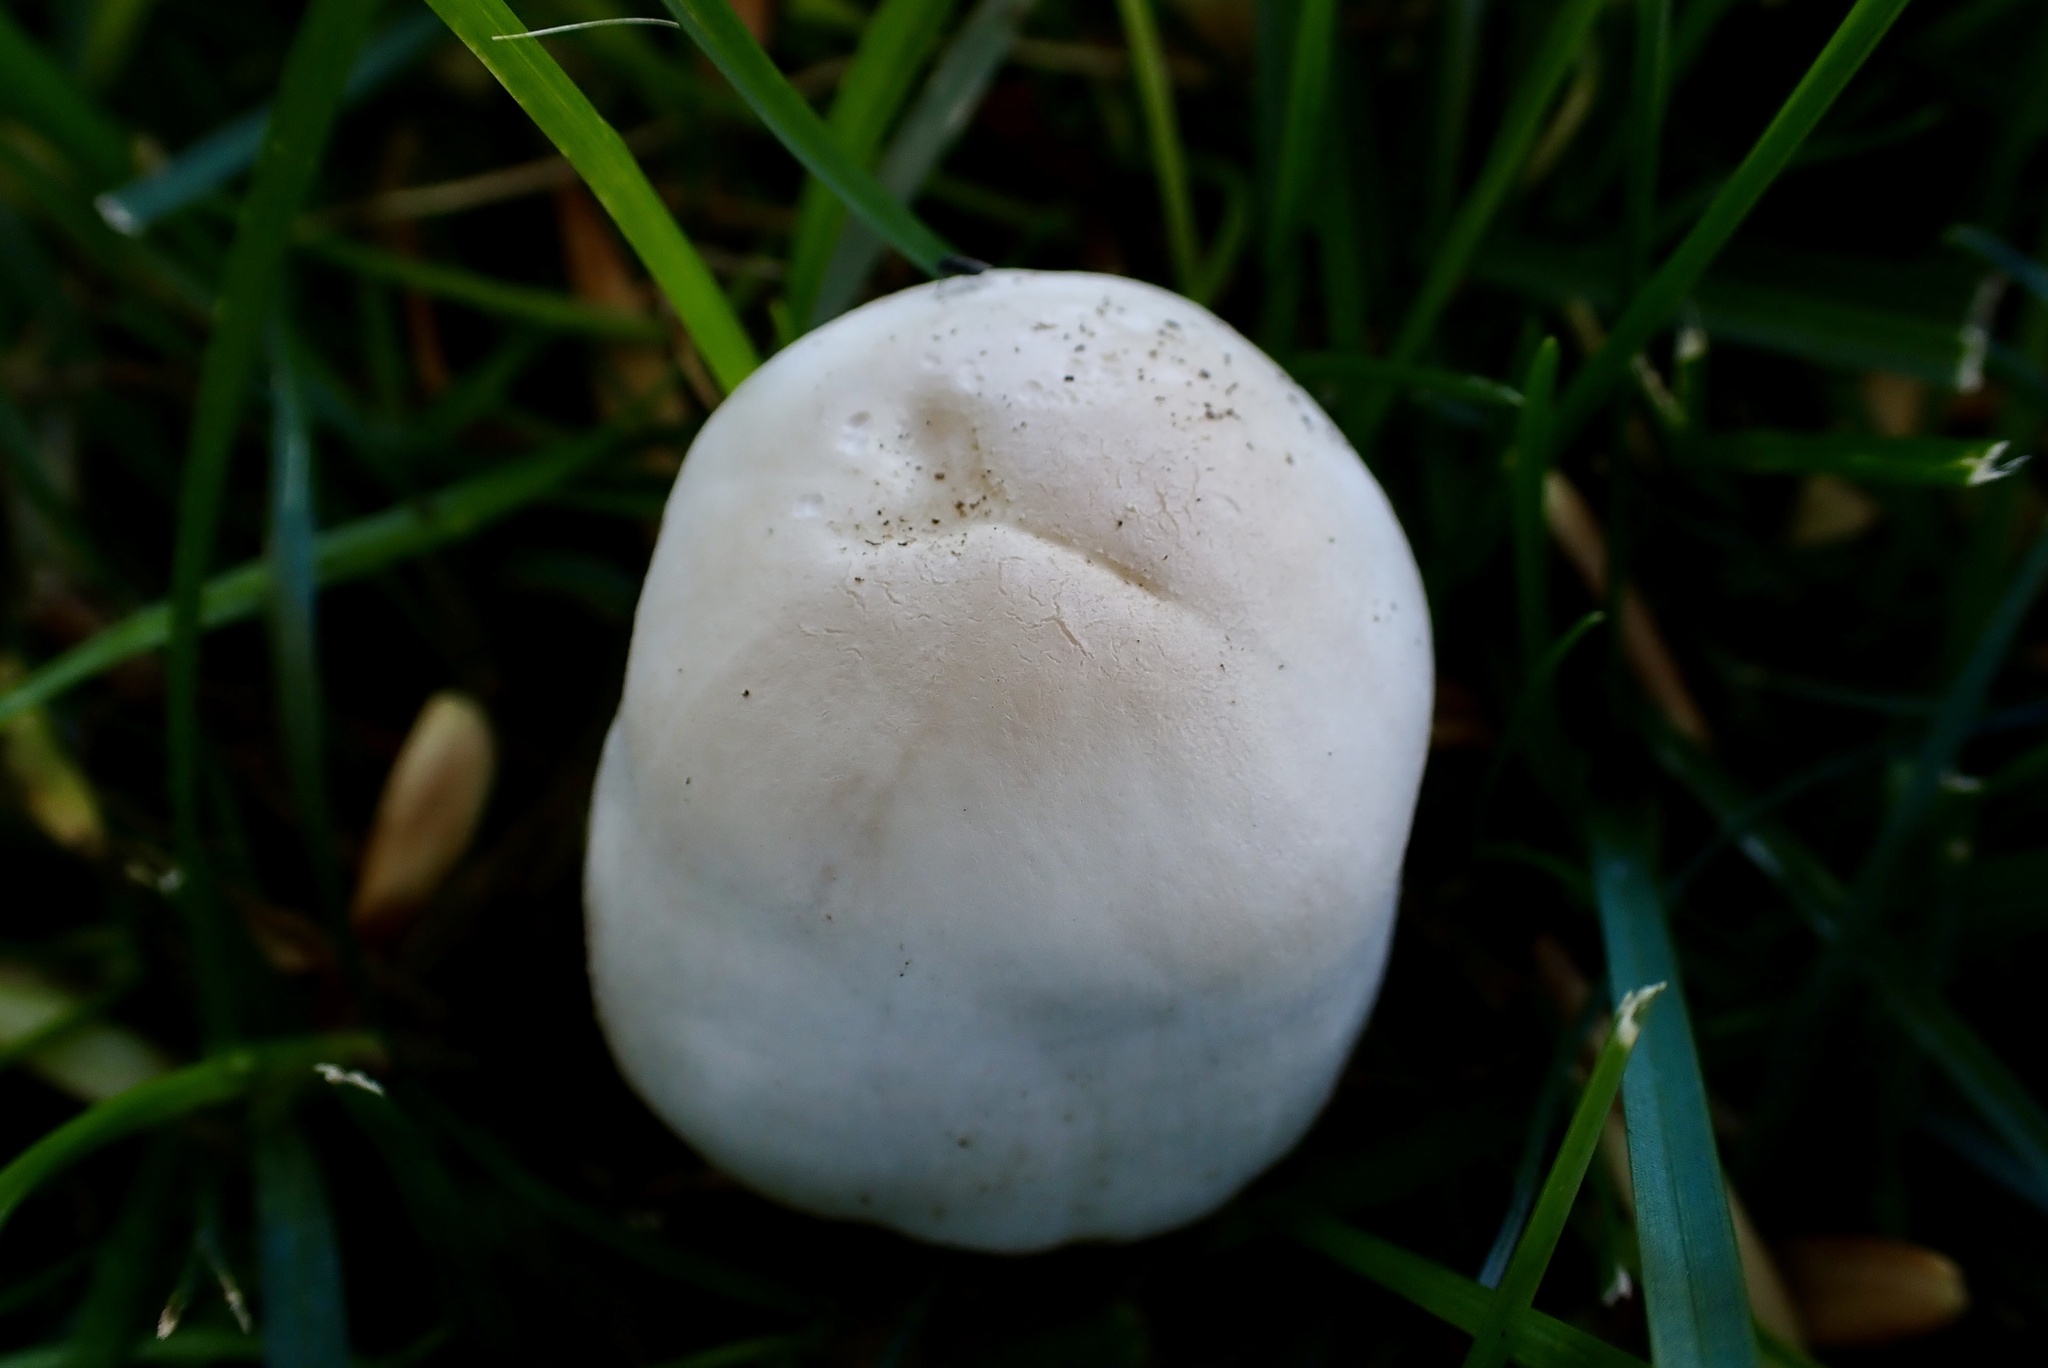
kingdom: Fungi
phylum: Basidiomycota
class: Agaricomycetes
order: Agaricales
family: Agaricaceae
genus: Agaricus
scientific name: Agaricus xanthodermus
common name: Yellow stainer
